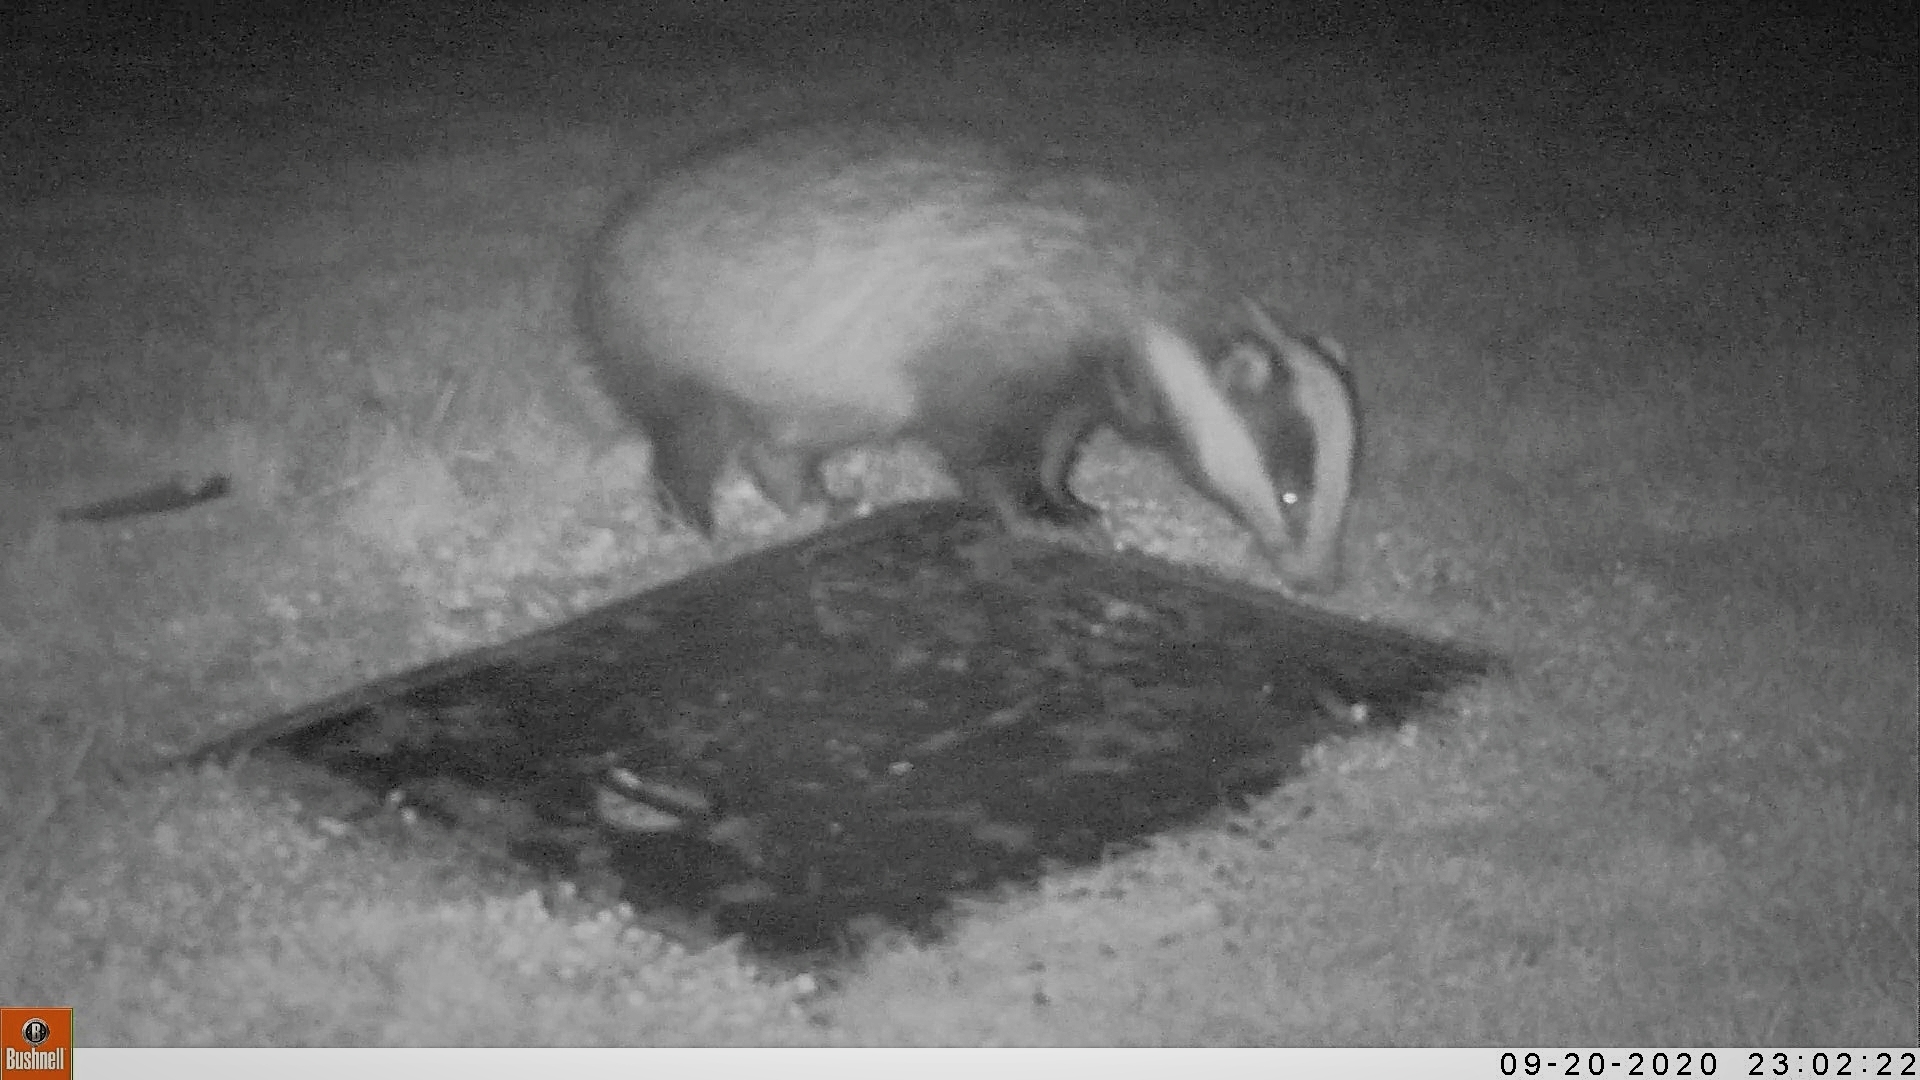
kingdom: Animalia
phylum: Chordata
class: Mammalia
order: Carnivora
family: Mustelidae
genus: Meles
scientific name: Meles meles
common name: Eurasian badger
